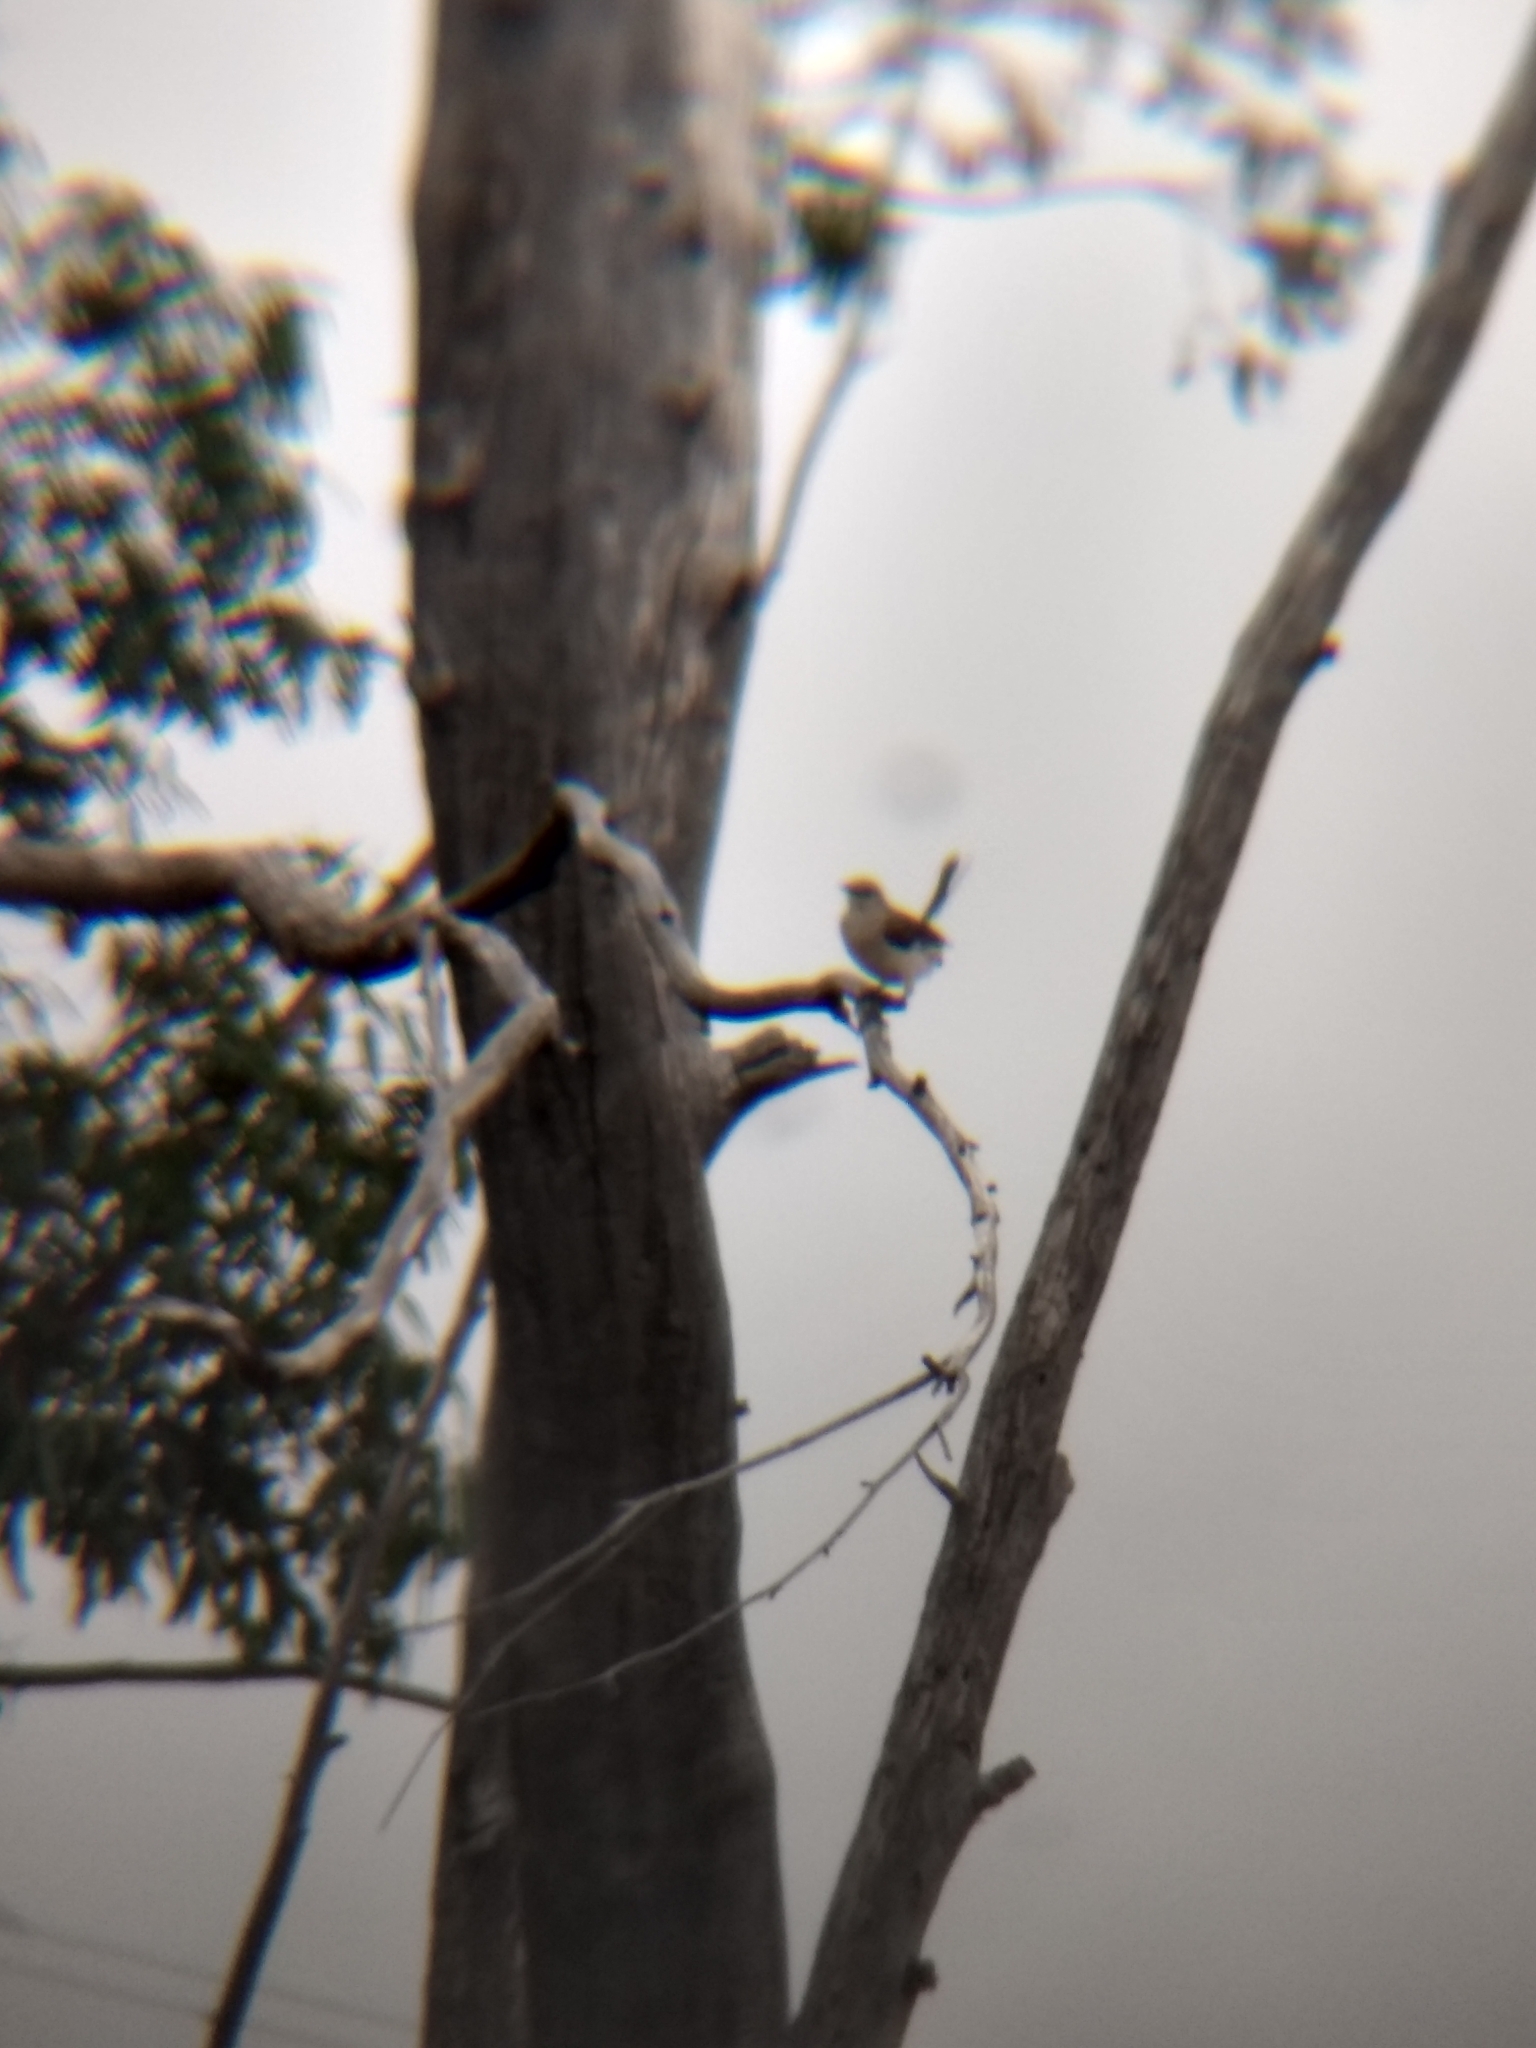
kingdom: Animalia
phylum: Chordata
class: Aves
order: Passeriformes
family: Mimidae
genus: Mimus
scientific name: Mimus polyglottos
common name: Northern mockingbird
